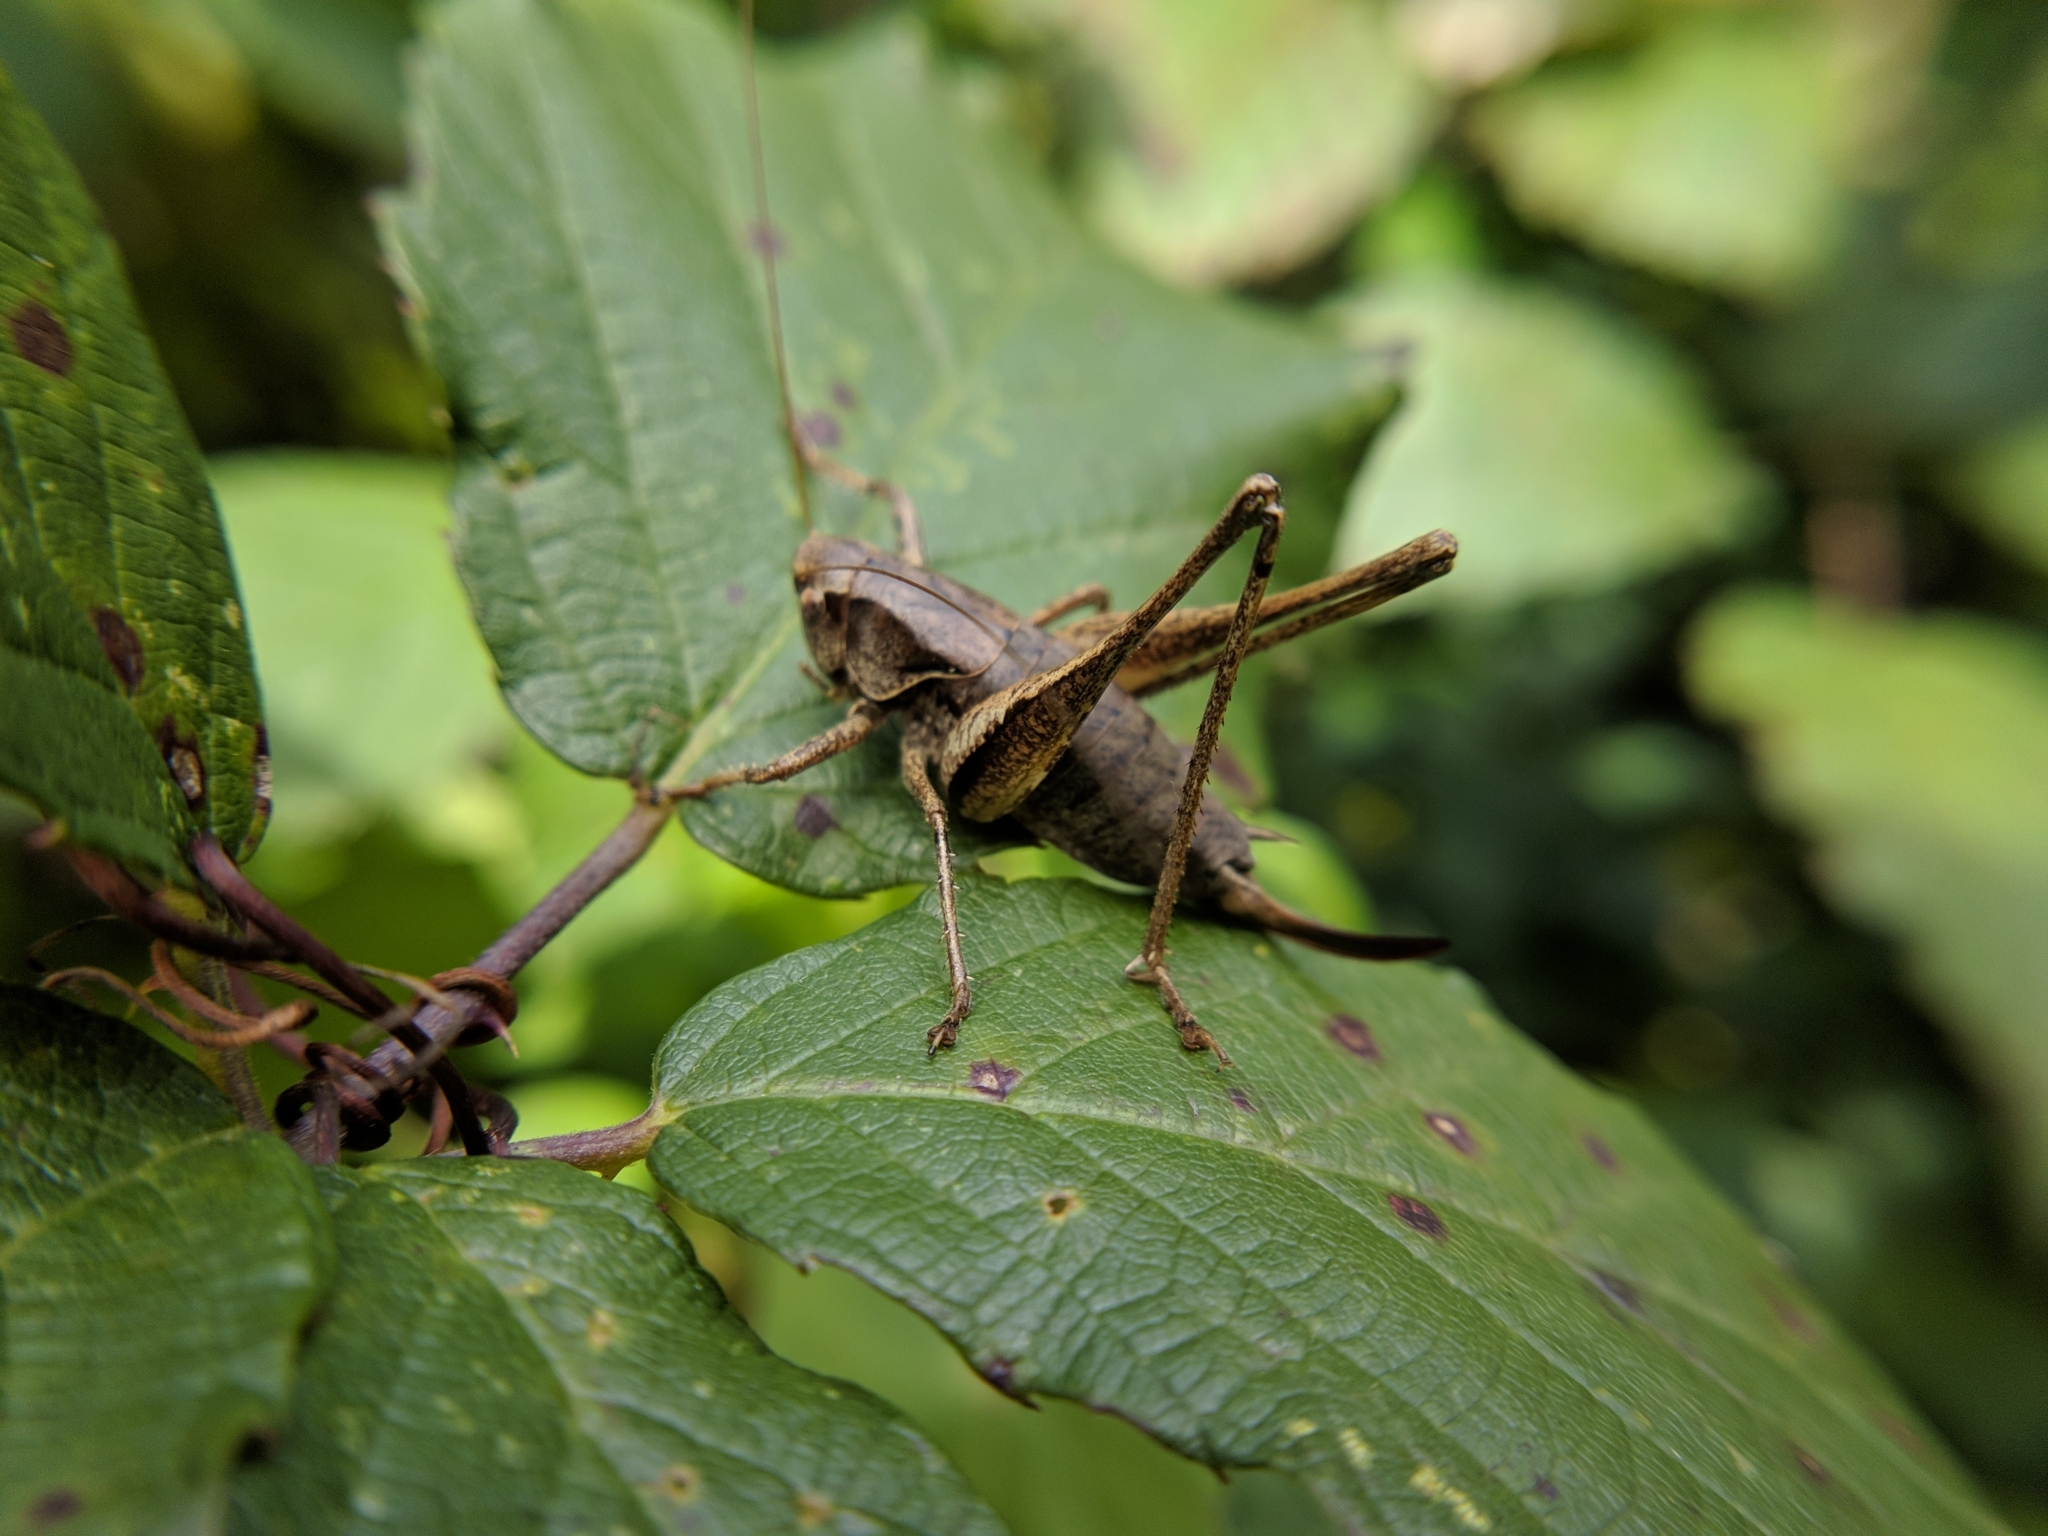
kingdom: Animalia
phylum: Arthropoda
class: Insecta
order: Orthoptera
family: Tettigoniidae
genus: Pholidoptera
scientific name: Pholidoptera griseoaptera
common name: Dark bush-cricket
